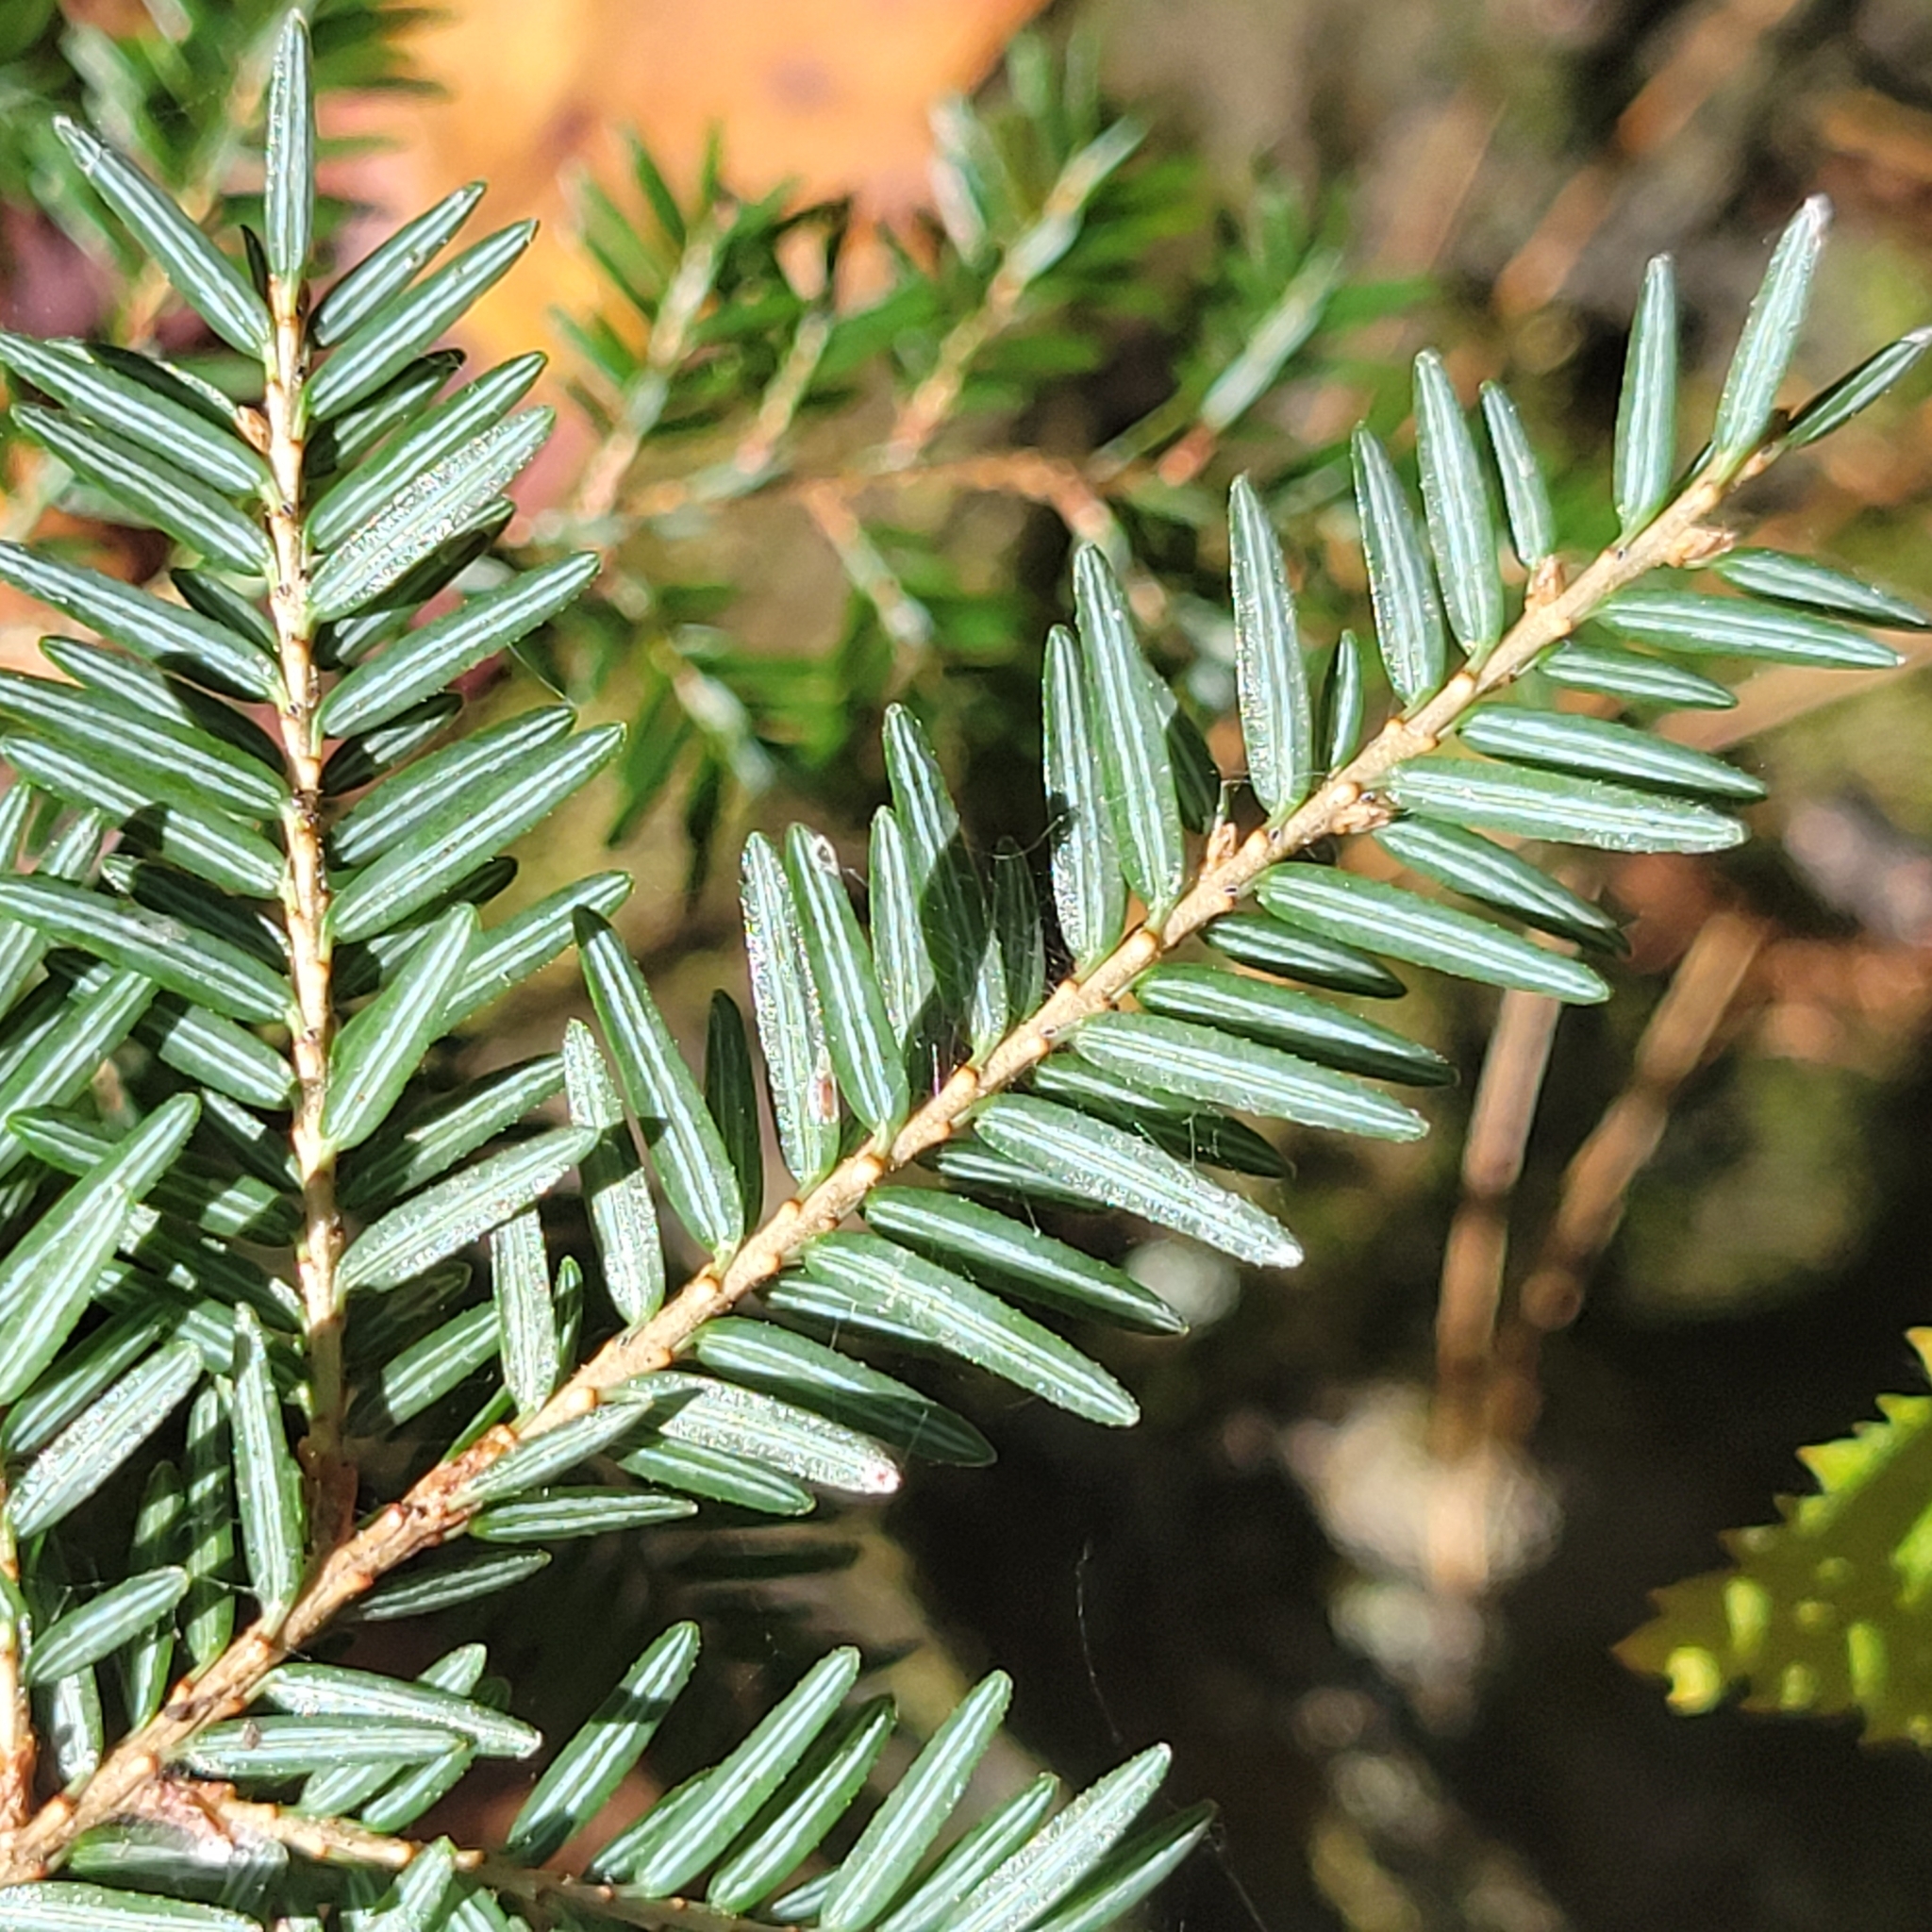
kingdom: Plantae
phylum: Tracheophyta
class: Pinopsida
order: Pinales
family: Pinaceae
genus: Tsuga
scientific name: Tsuga canadensis
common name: Eastern hemlock
